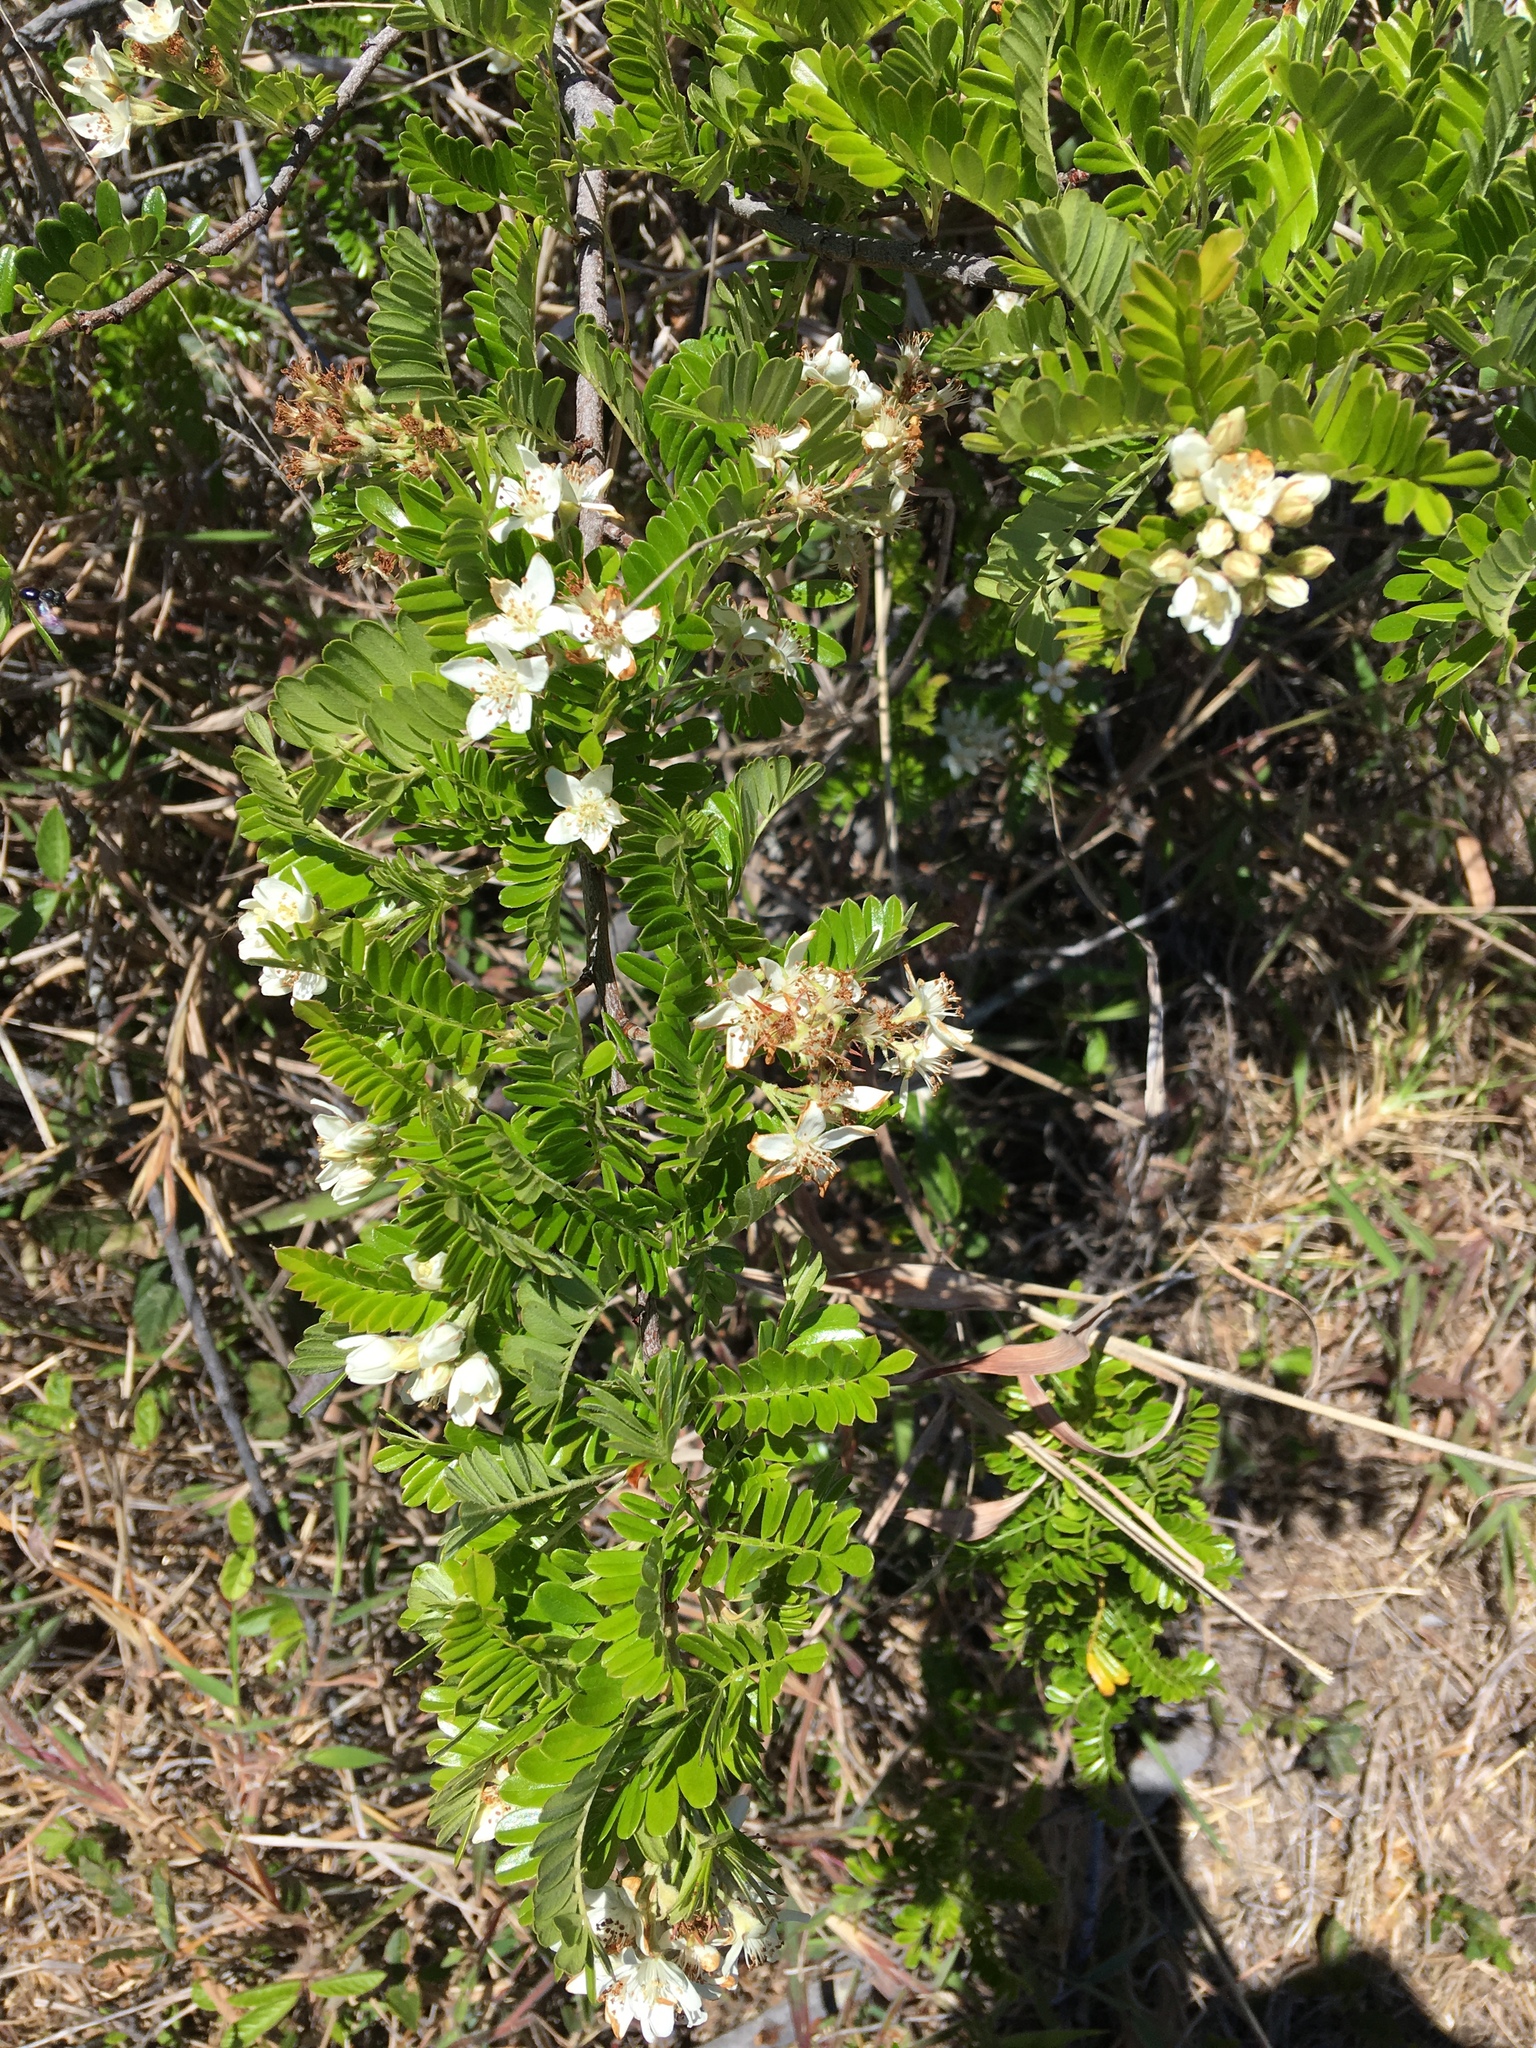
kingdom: Plantae
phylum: Tracheophyta
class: Magnoliopsida
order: Rosales
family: Rosaceae
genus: Osteomeles
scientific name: Osteomeles anthyllidifolia
